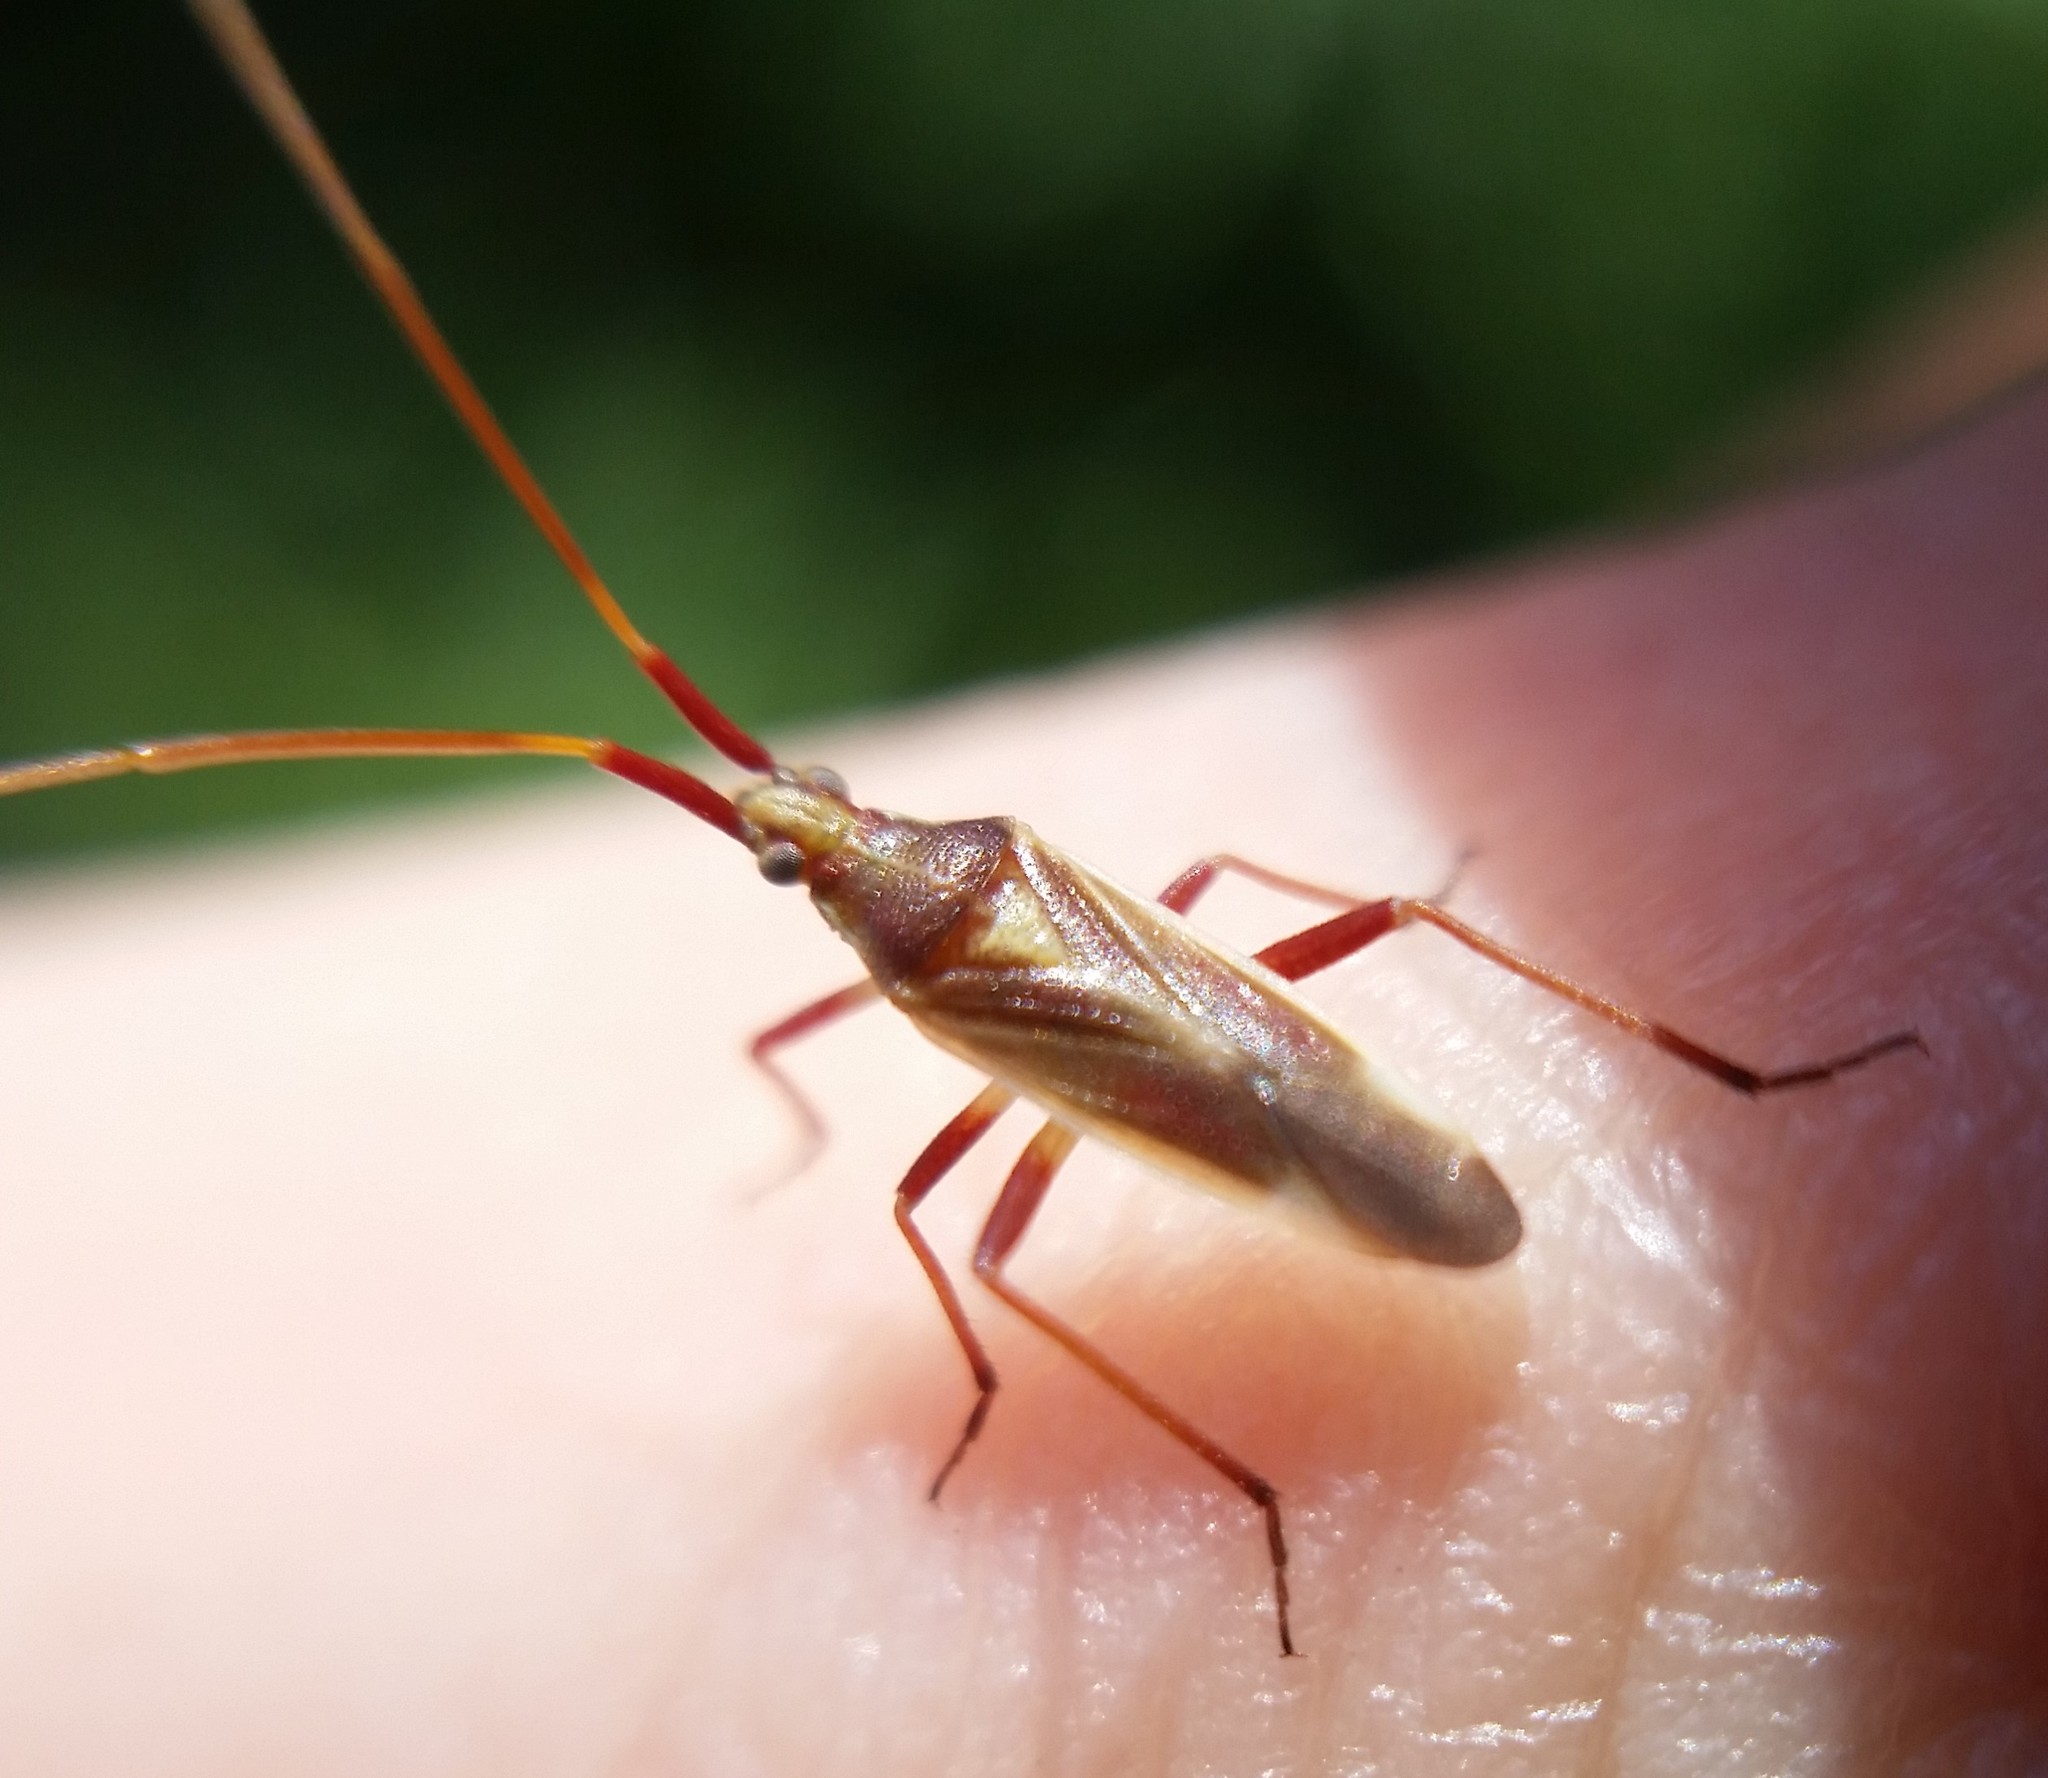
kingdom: Animalia
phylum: Arthropoda
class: Insecta
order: Hemiptera
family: Miridae
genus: Porpomiris
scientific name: Porpomiris curtulus
